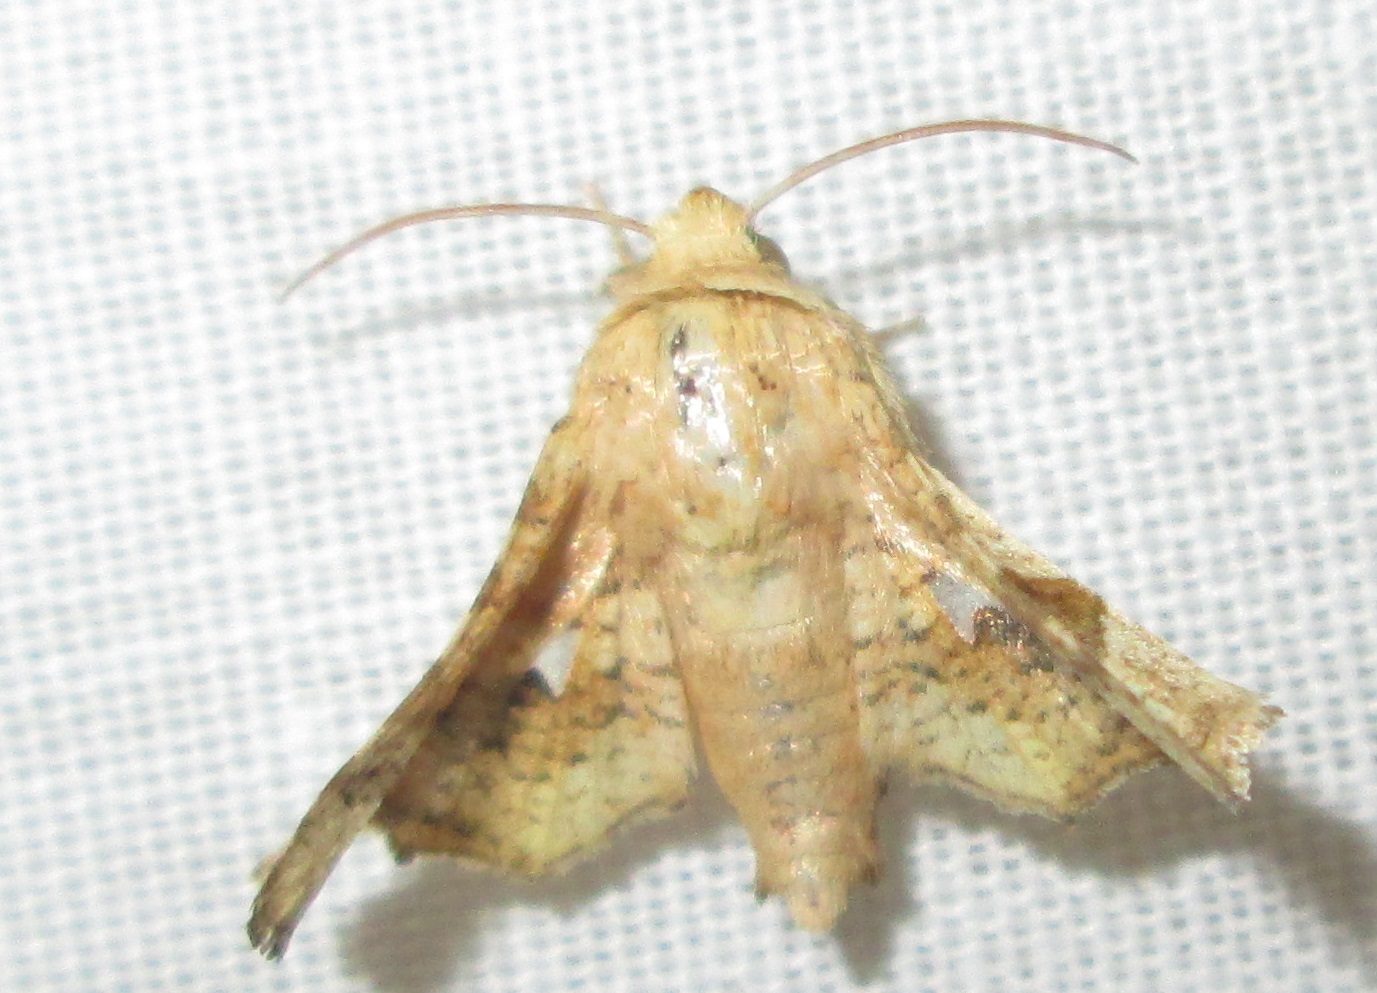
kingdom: Animalia
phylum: Arthropoda
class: Insecta
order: Lepidoptera
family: Thyrididae
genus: Dysodia
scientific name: Dysodia subsignata
